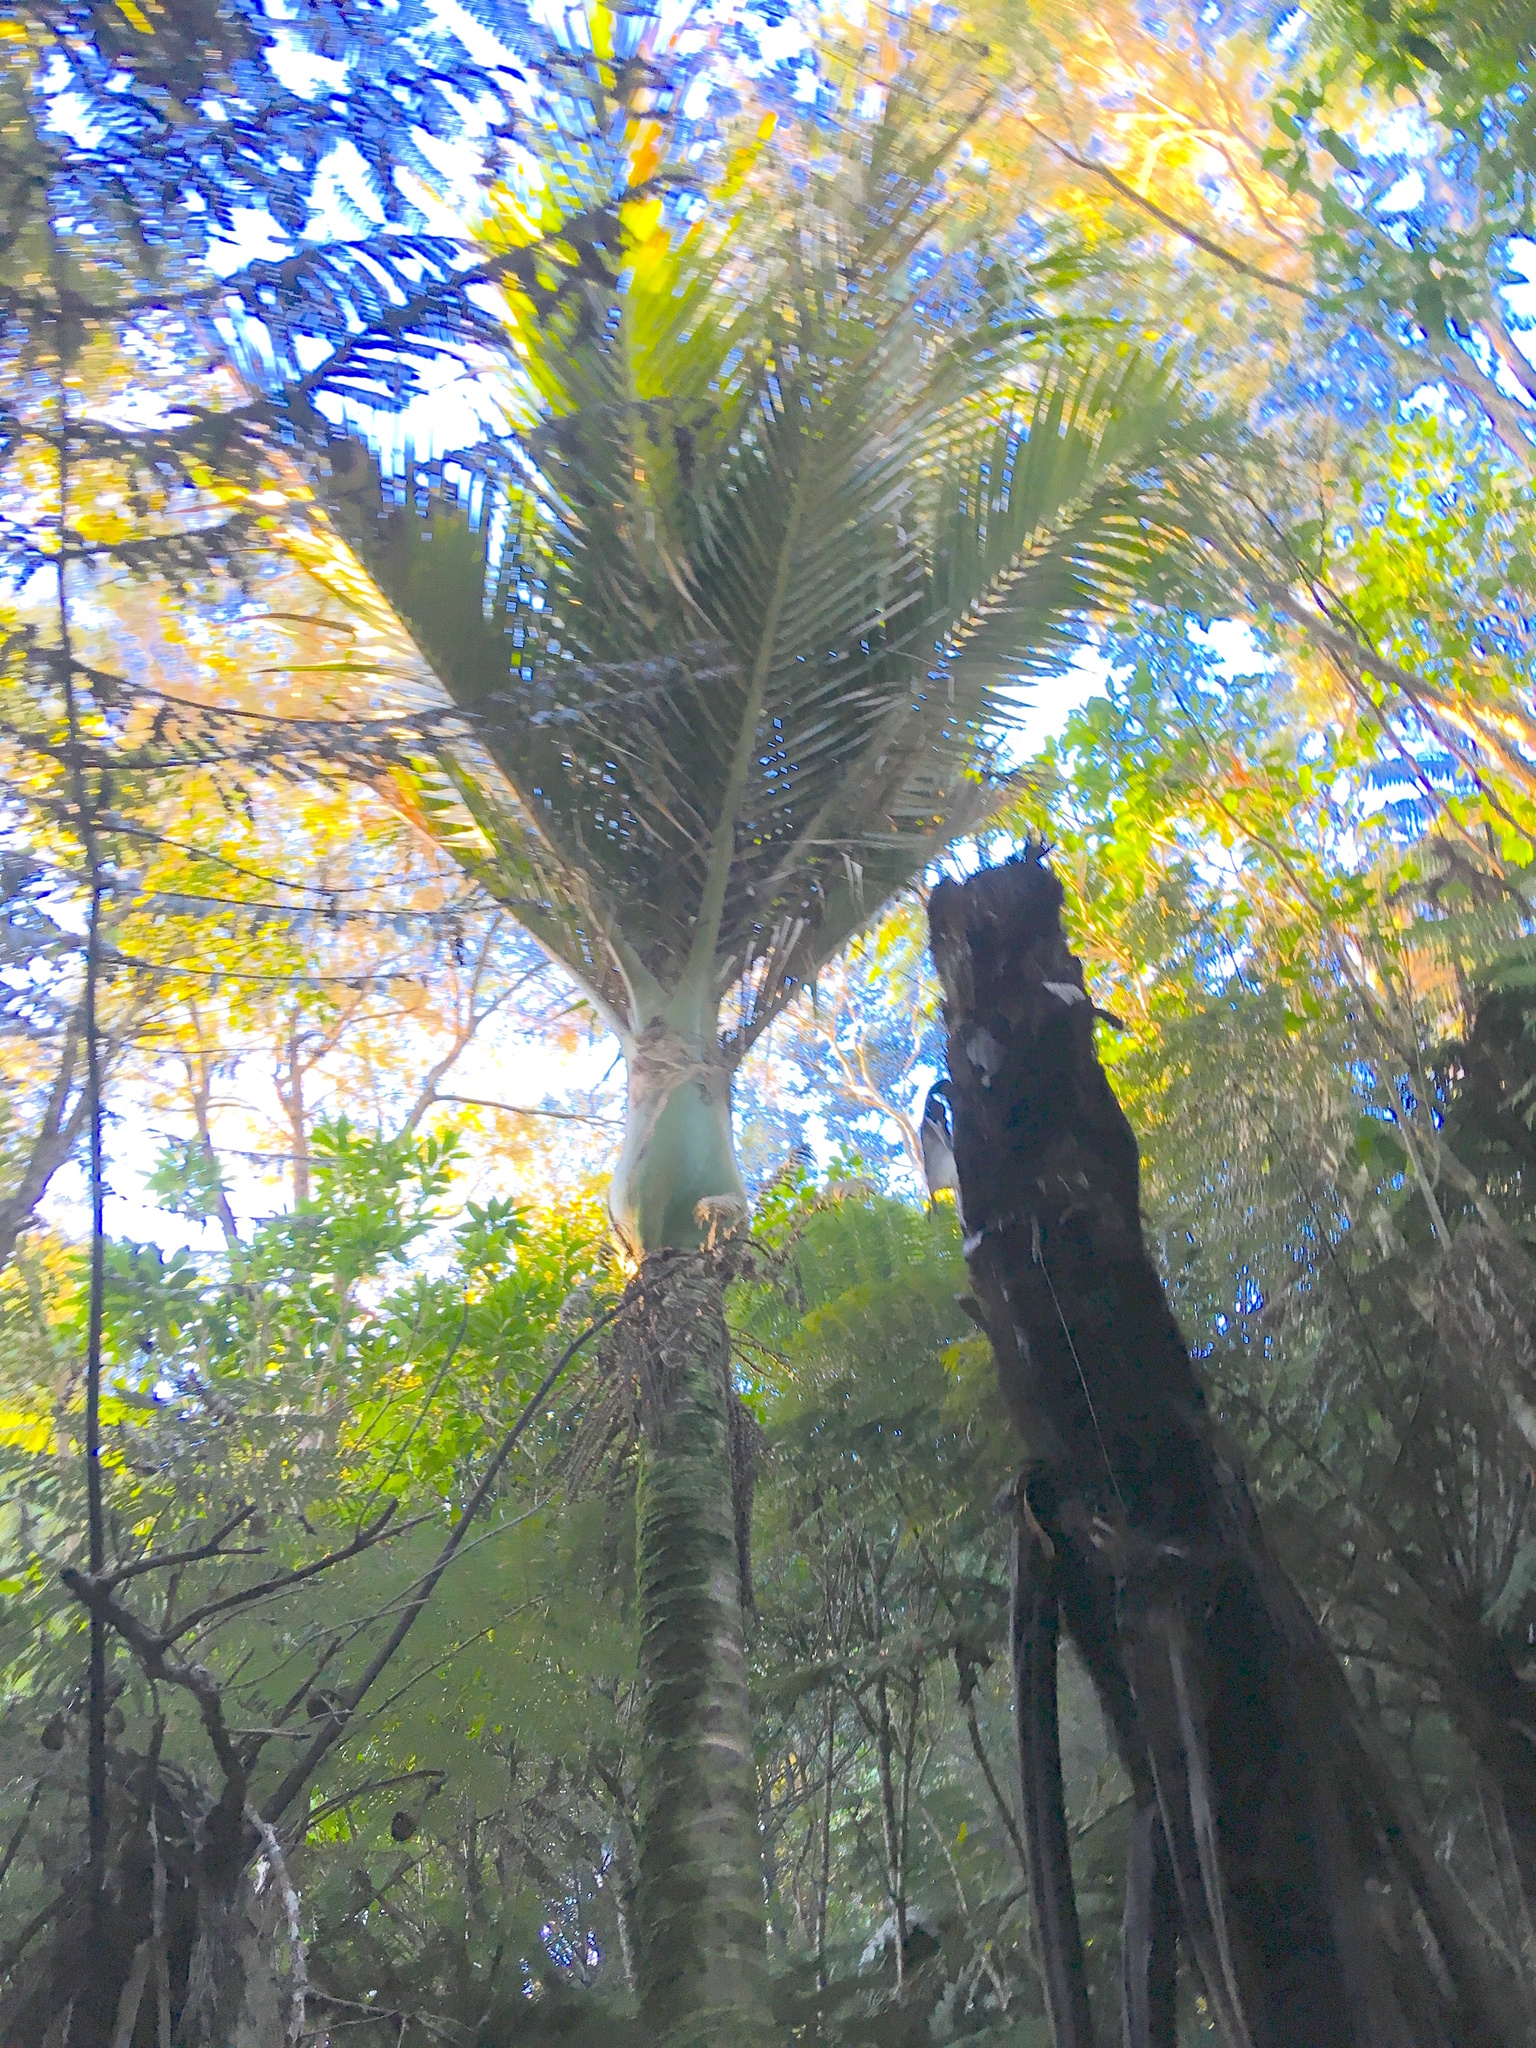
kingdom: Plantae
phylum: Tracheophyta
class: Liliopsida
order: Arecales
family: Arecaceae
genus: Rhopalostylis
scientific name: Rhopalostylis sapida
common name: Feather-duster palm
